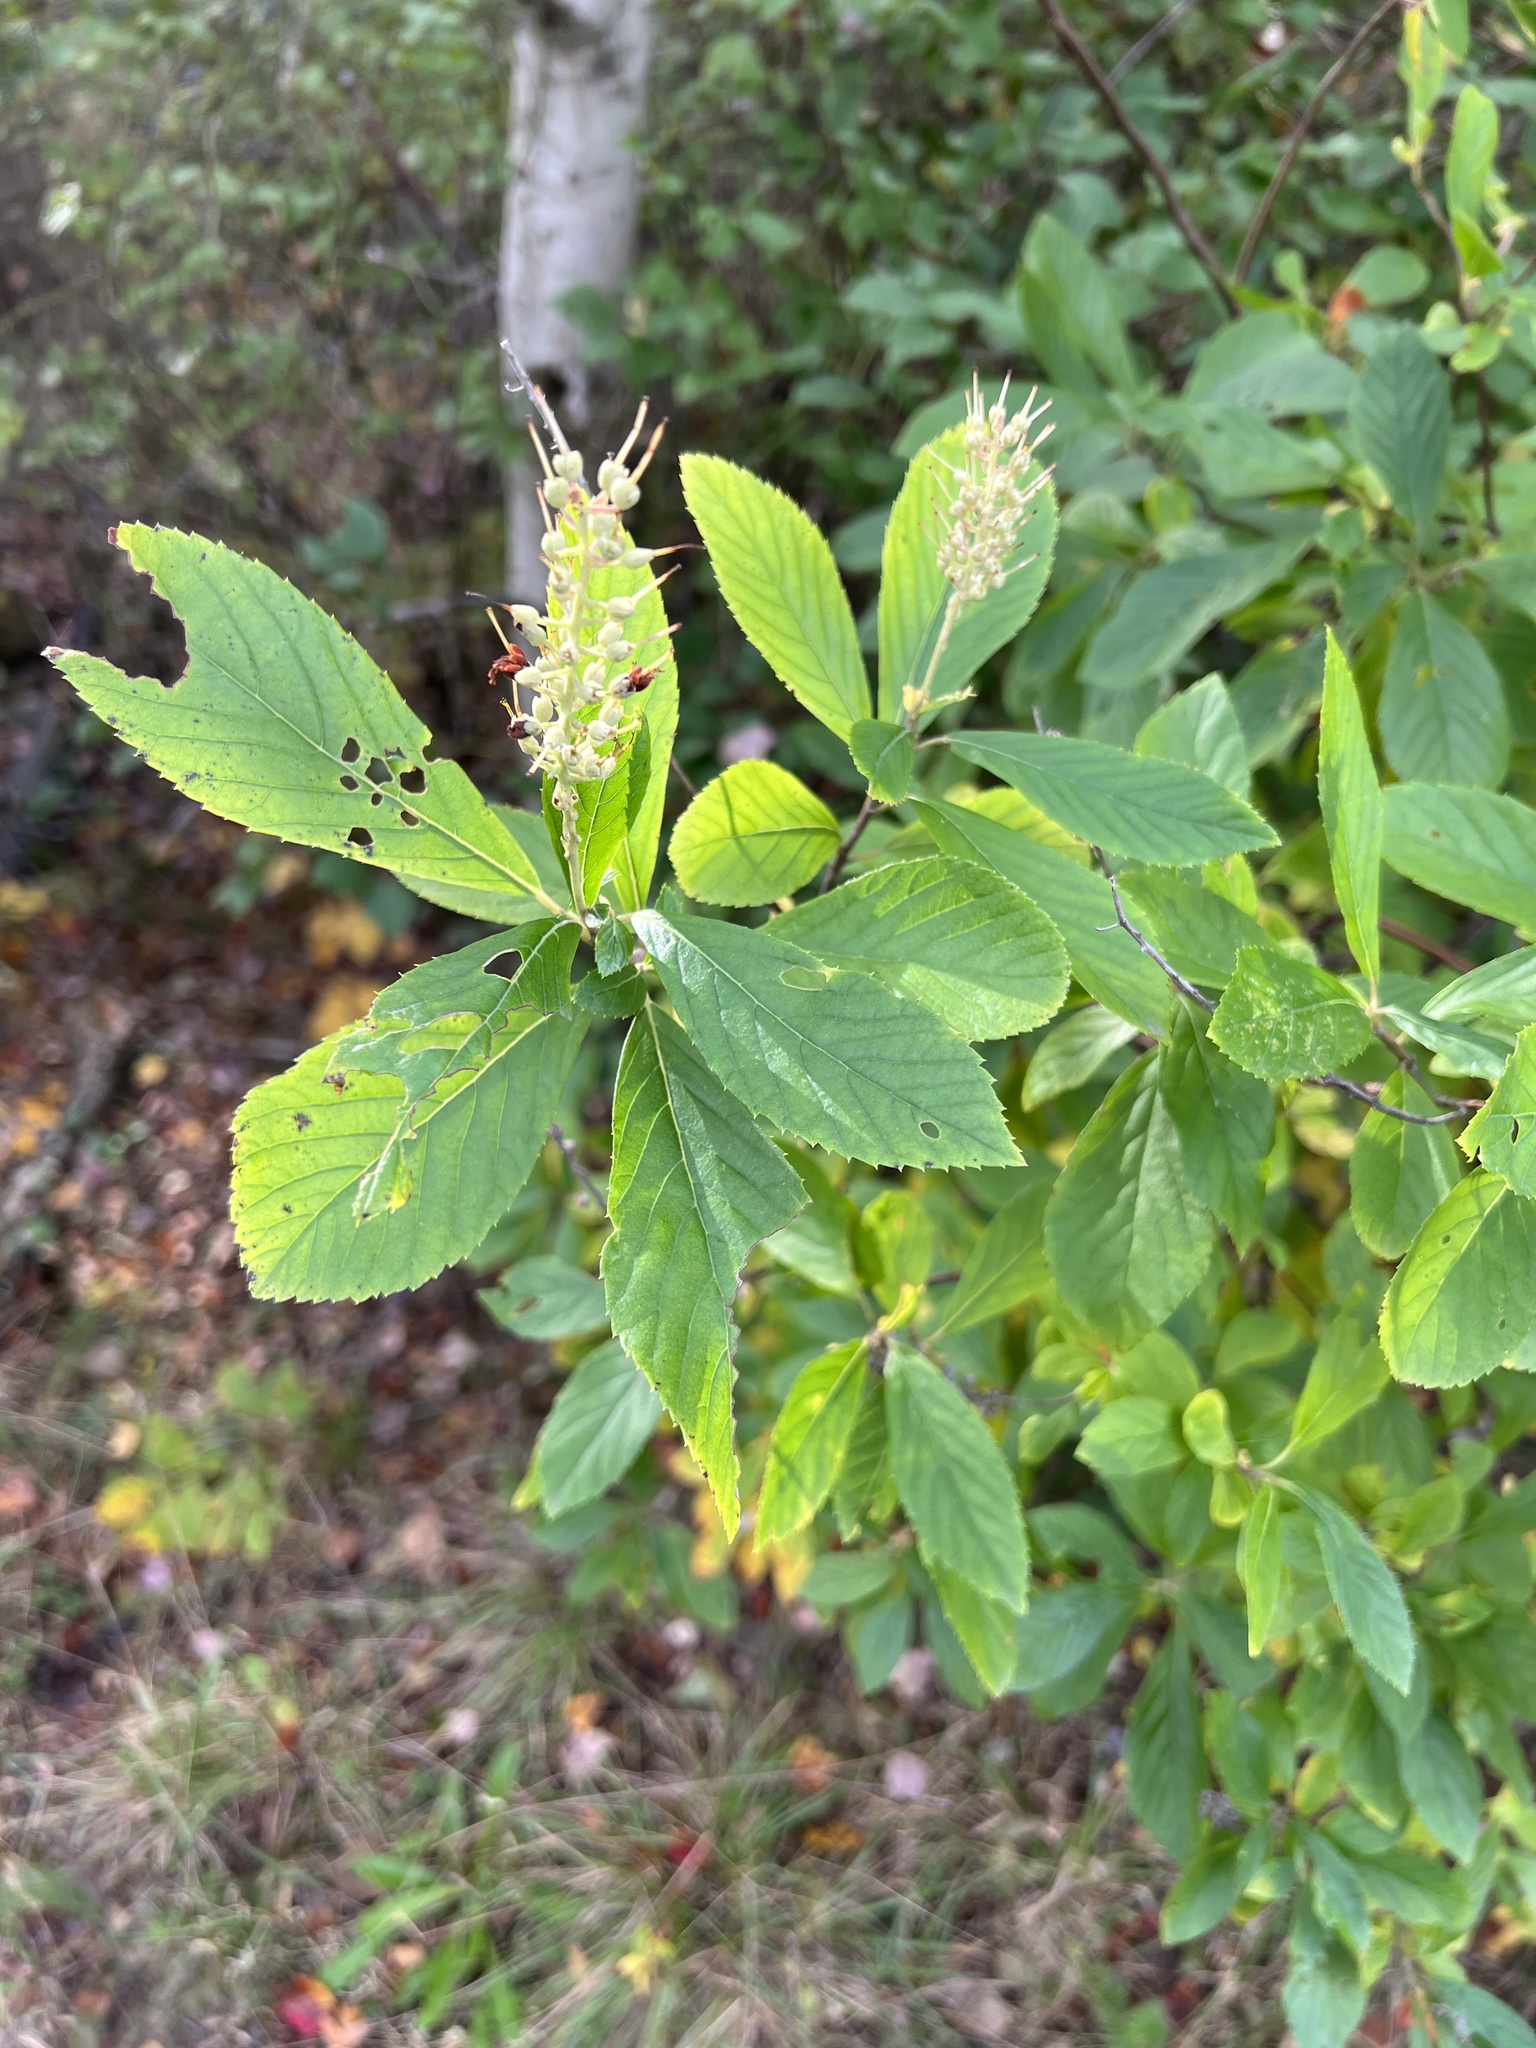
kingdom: Plantae
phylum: Tracheophyta
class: Magnoliopsida
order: Ericales
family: Clethraceae
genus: Clethra
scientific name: Clethra alnifolia
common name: Sweet pepperbush
